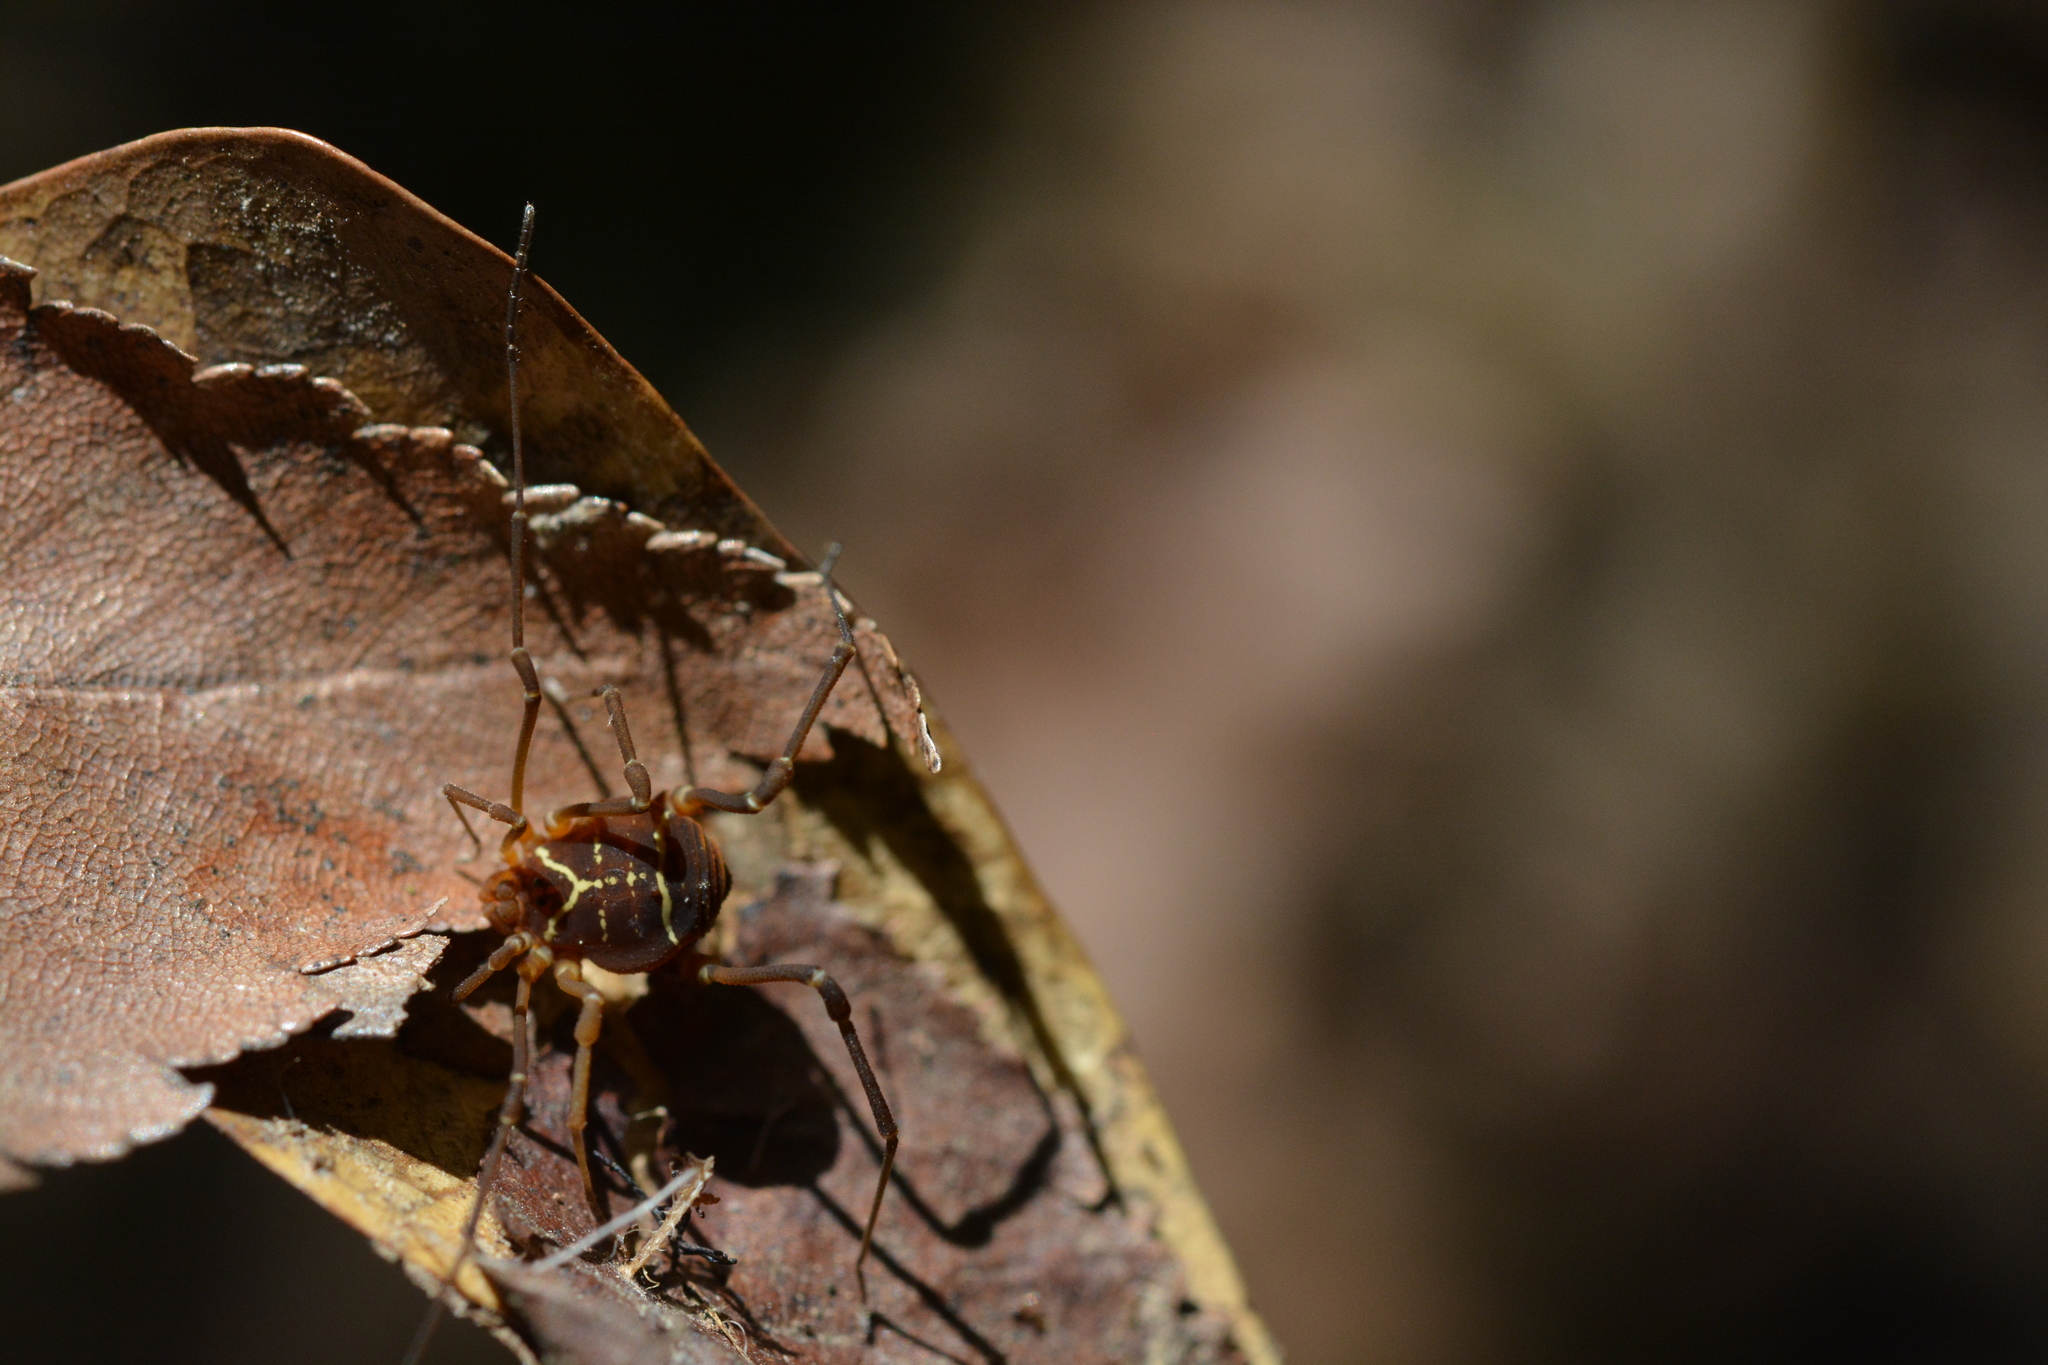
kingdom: Animalia
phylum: Arthropoda
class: Arachnida
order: Opiliones
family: Cosmetidae
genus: Libitioides
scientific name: Libitioides sayi
